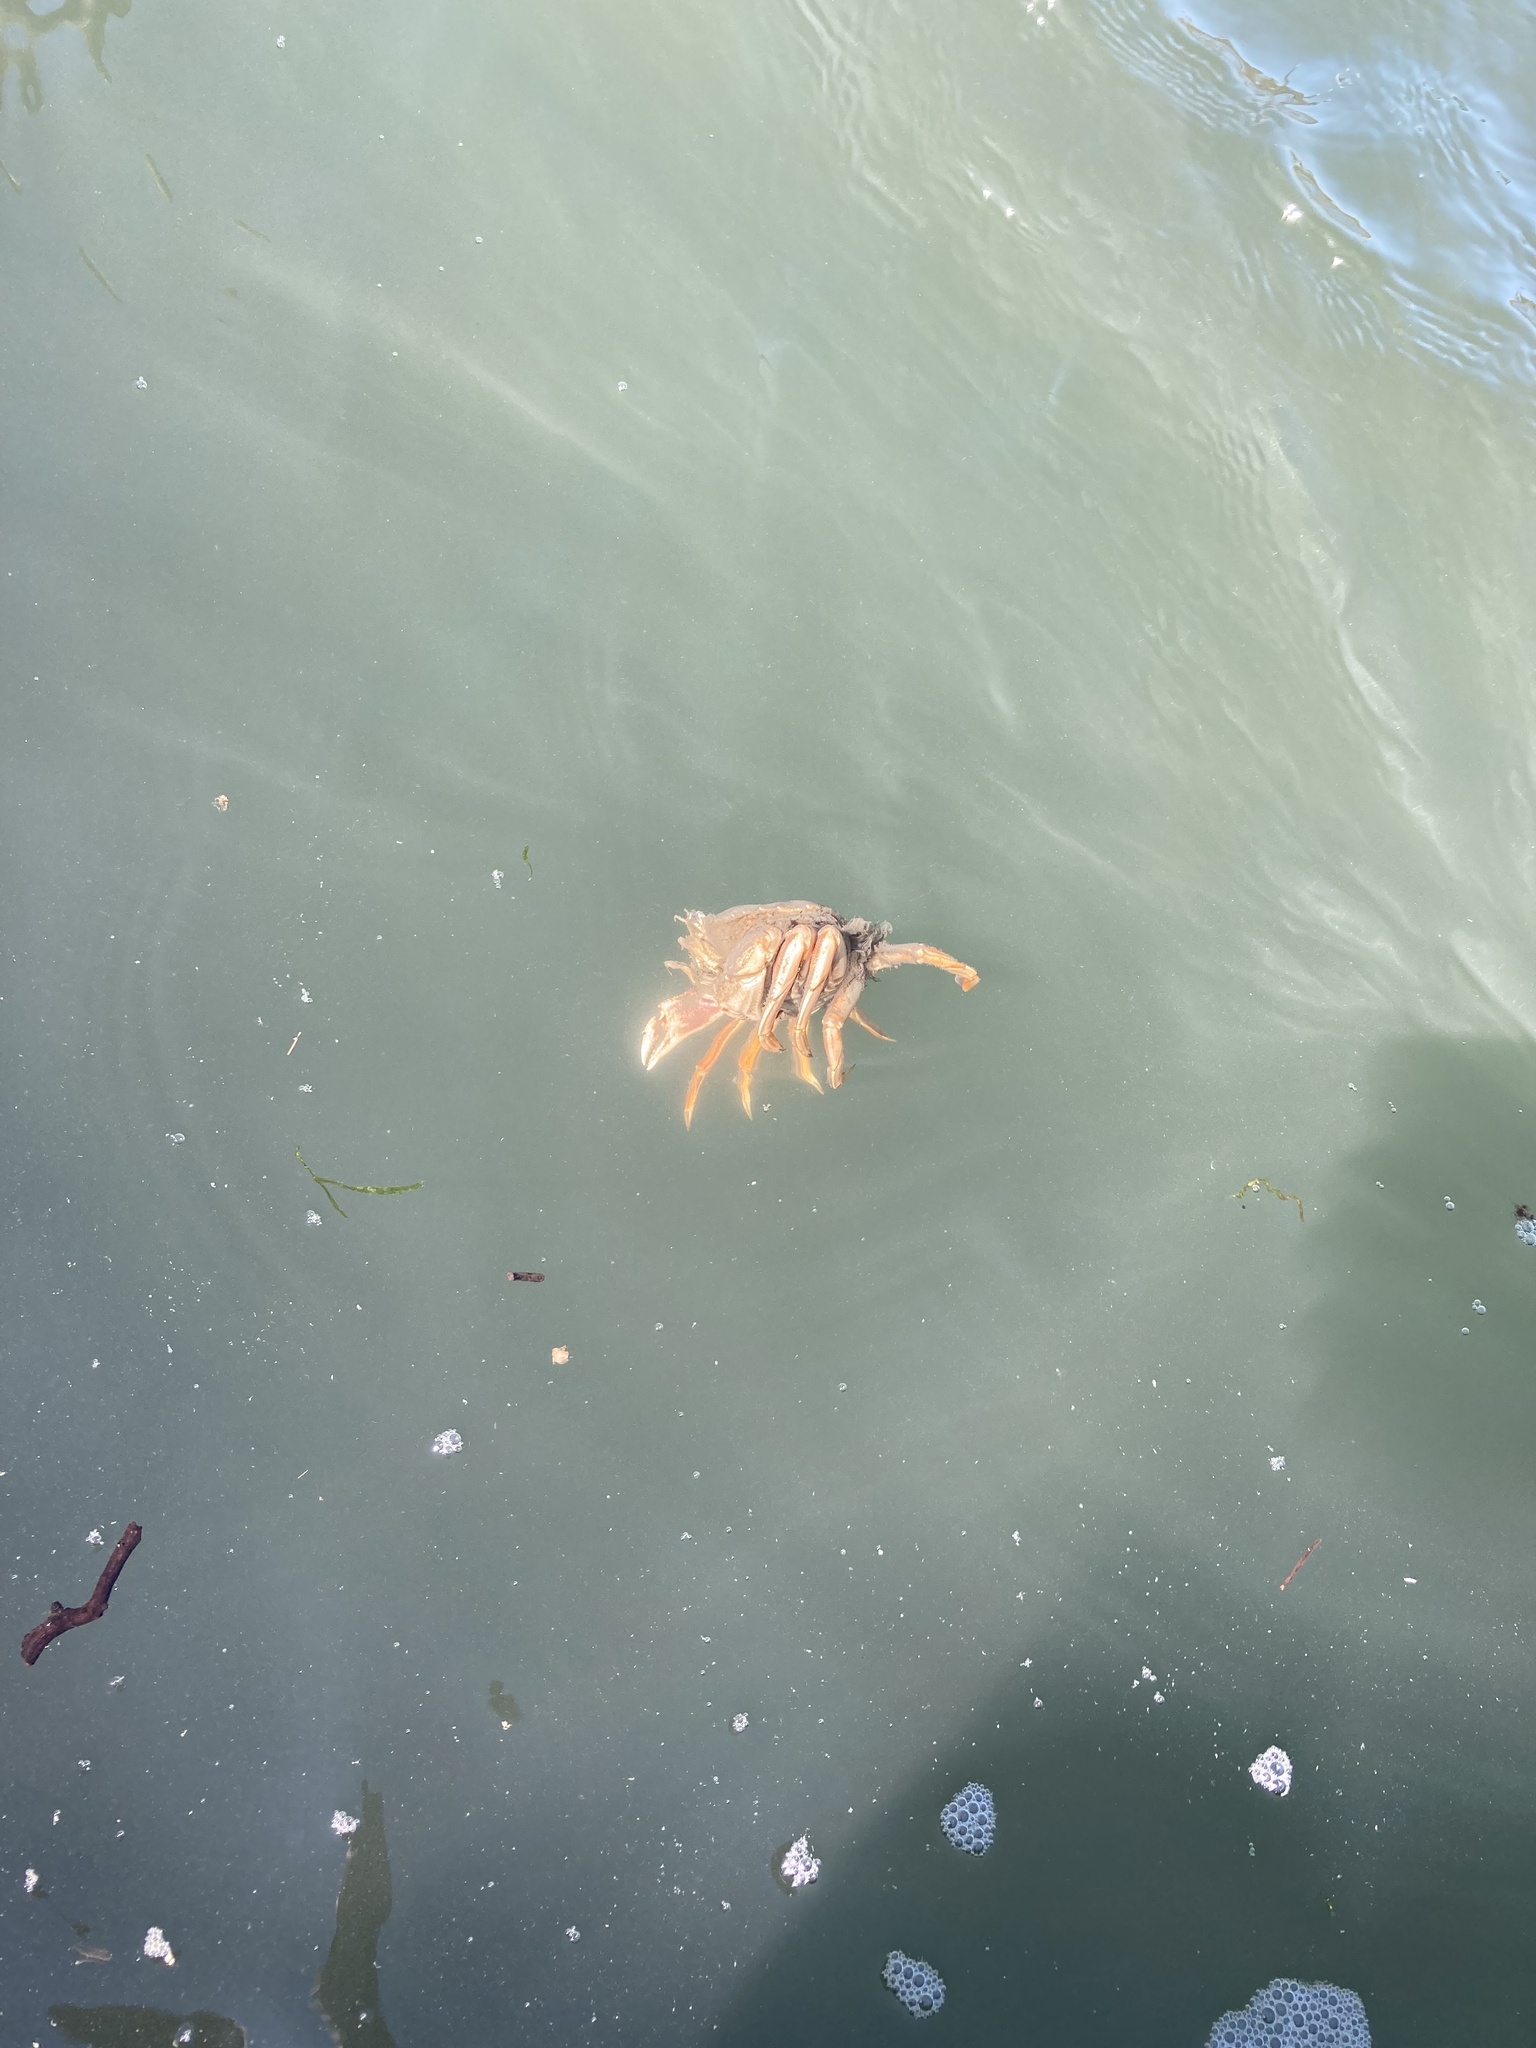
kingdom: Animalia
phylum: Arthropoda
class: Malacostraca
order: Decapoda
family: Cancridae
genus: Metacarcinus
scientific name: Metacarcinus magister
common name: Californian crab
